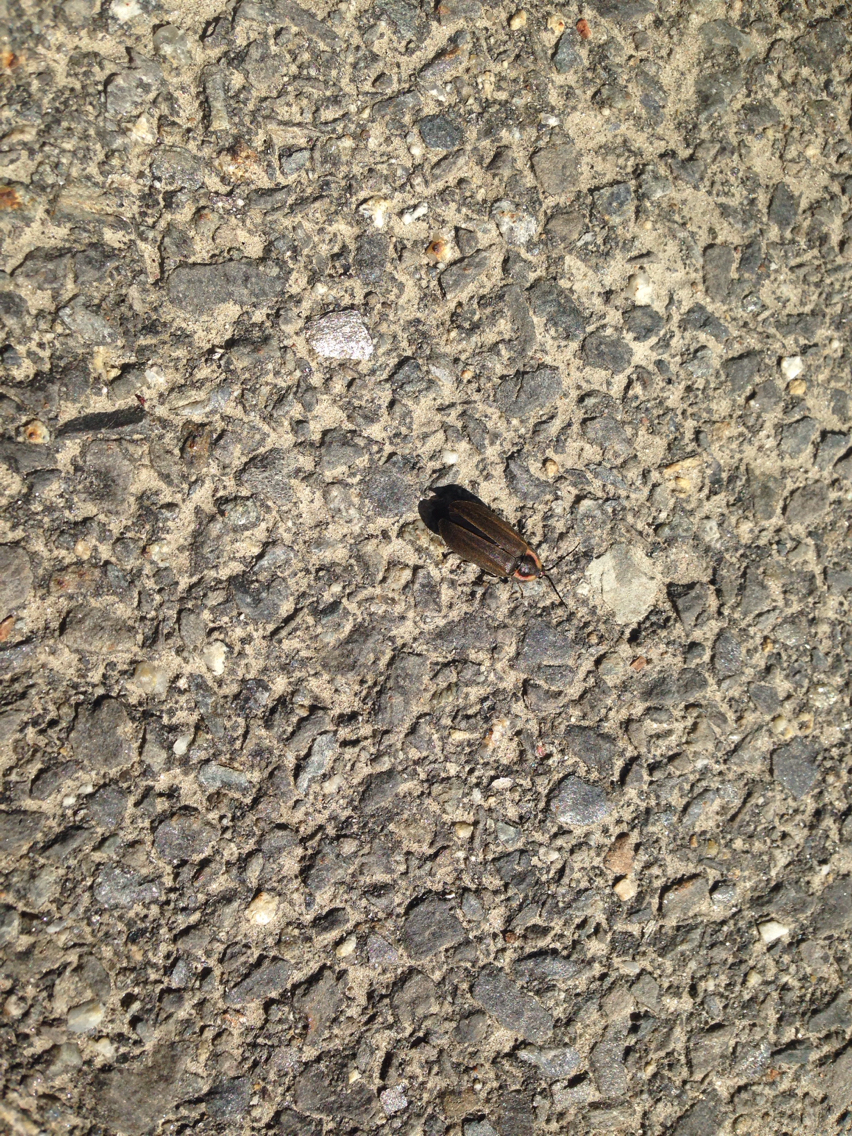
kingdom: Animalia
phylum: Arthropoda
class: Insecta
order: Coleoptera
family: Lampyridae
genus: Photinus
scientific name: Photinus corrusca
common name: Winter firefly
